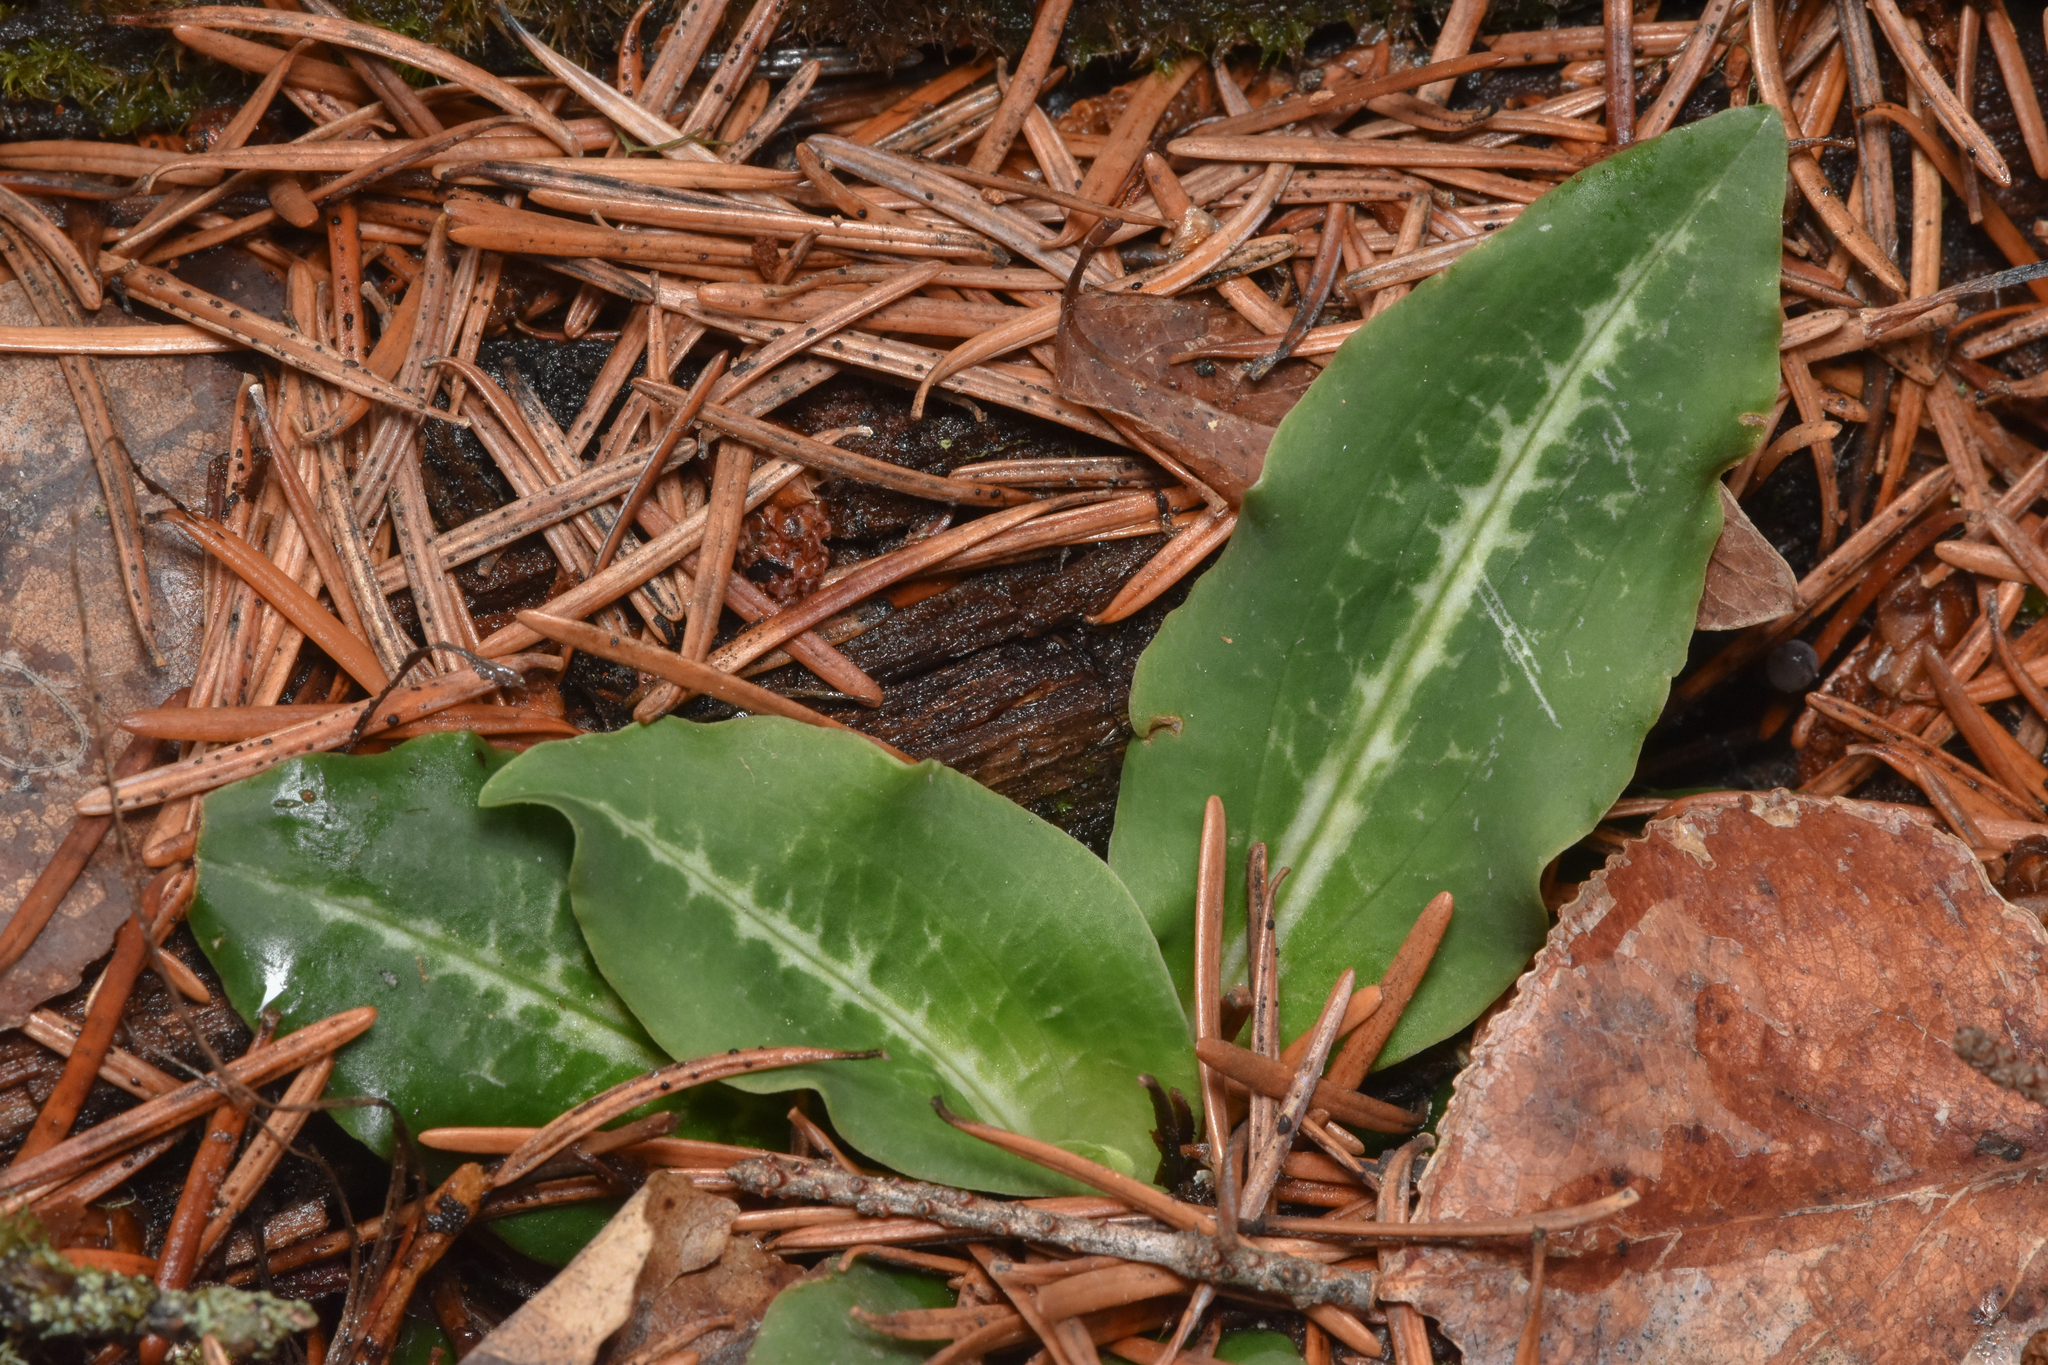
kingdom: Plantae
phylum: Tracheophyta
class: Liliopsida
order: Asparagales
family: Orchidaceae
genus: Goodyera
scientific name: Goodyera oblongifolia
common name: Giant rattlesnake-plantain
